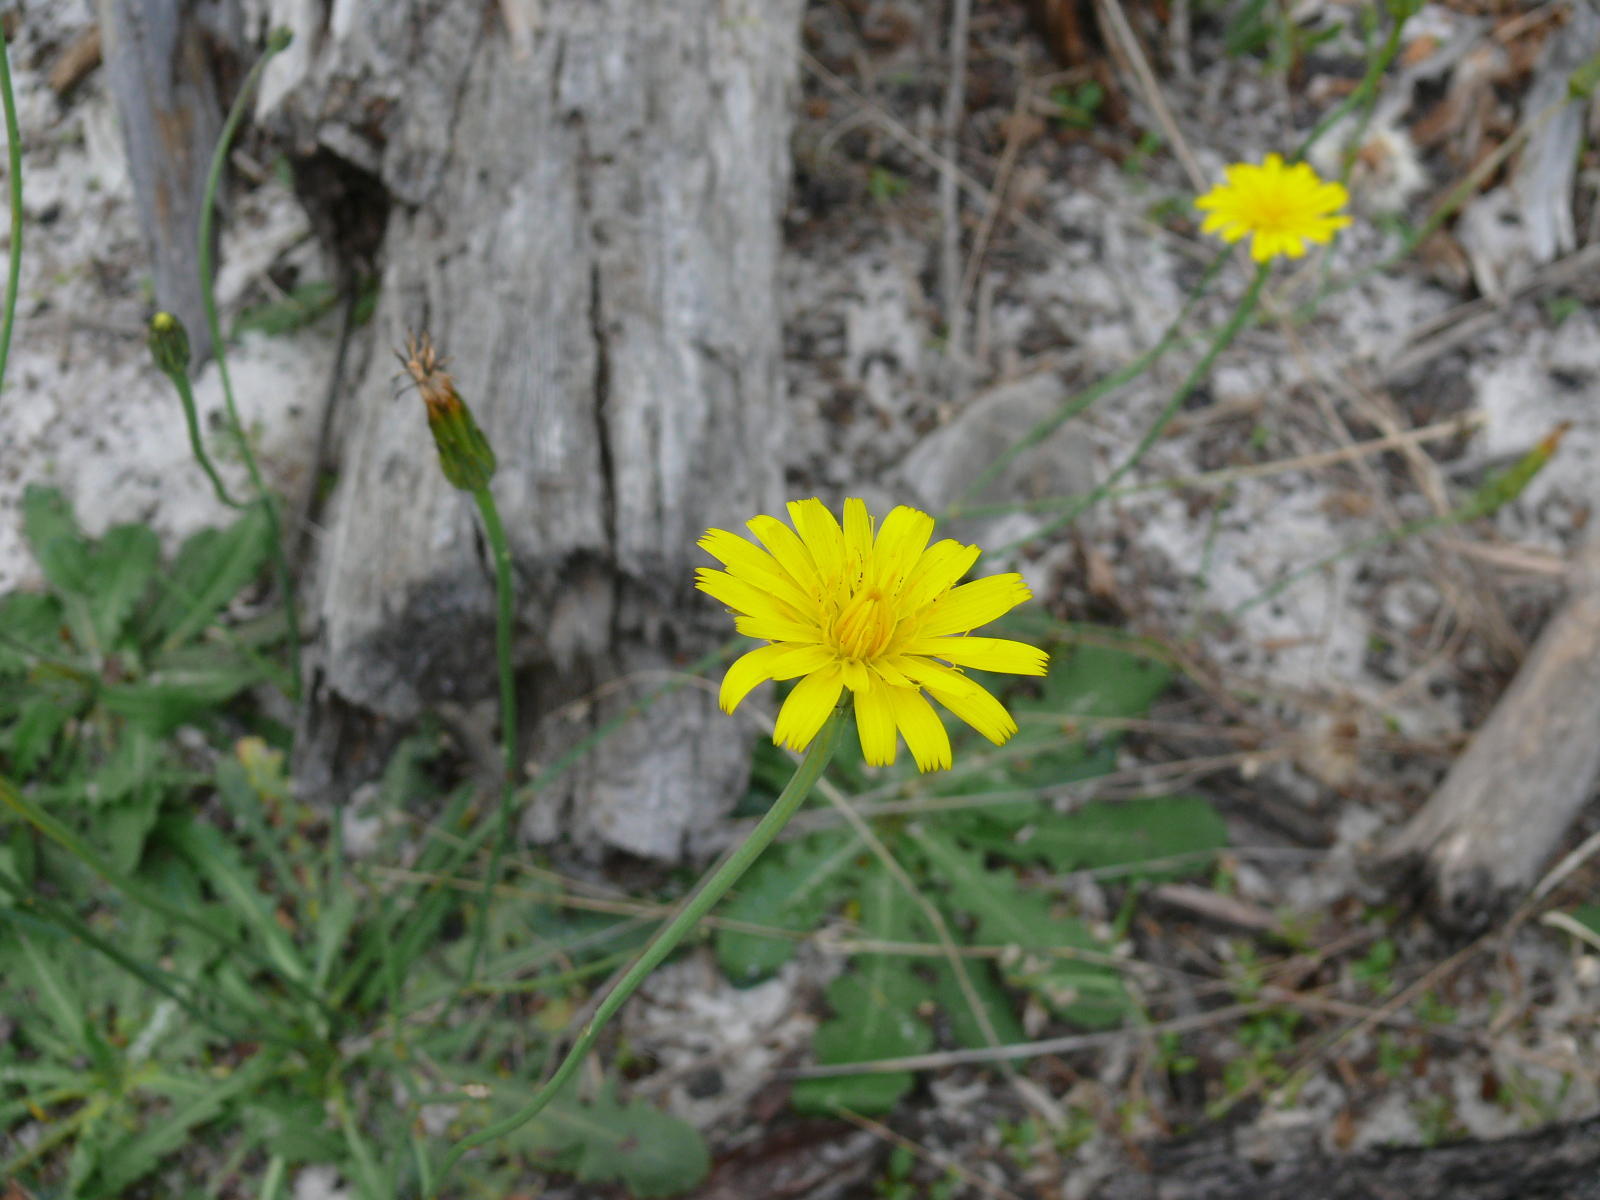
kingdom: Plantae
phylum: Tracheophyta
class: Magnoliopsida
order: Asterales
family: Asteraceae
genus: Hypochaeris
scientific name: Hypochaeris radicata
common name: Flatweed
